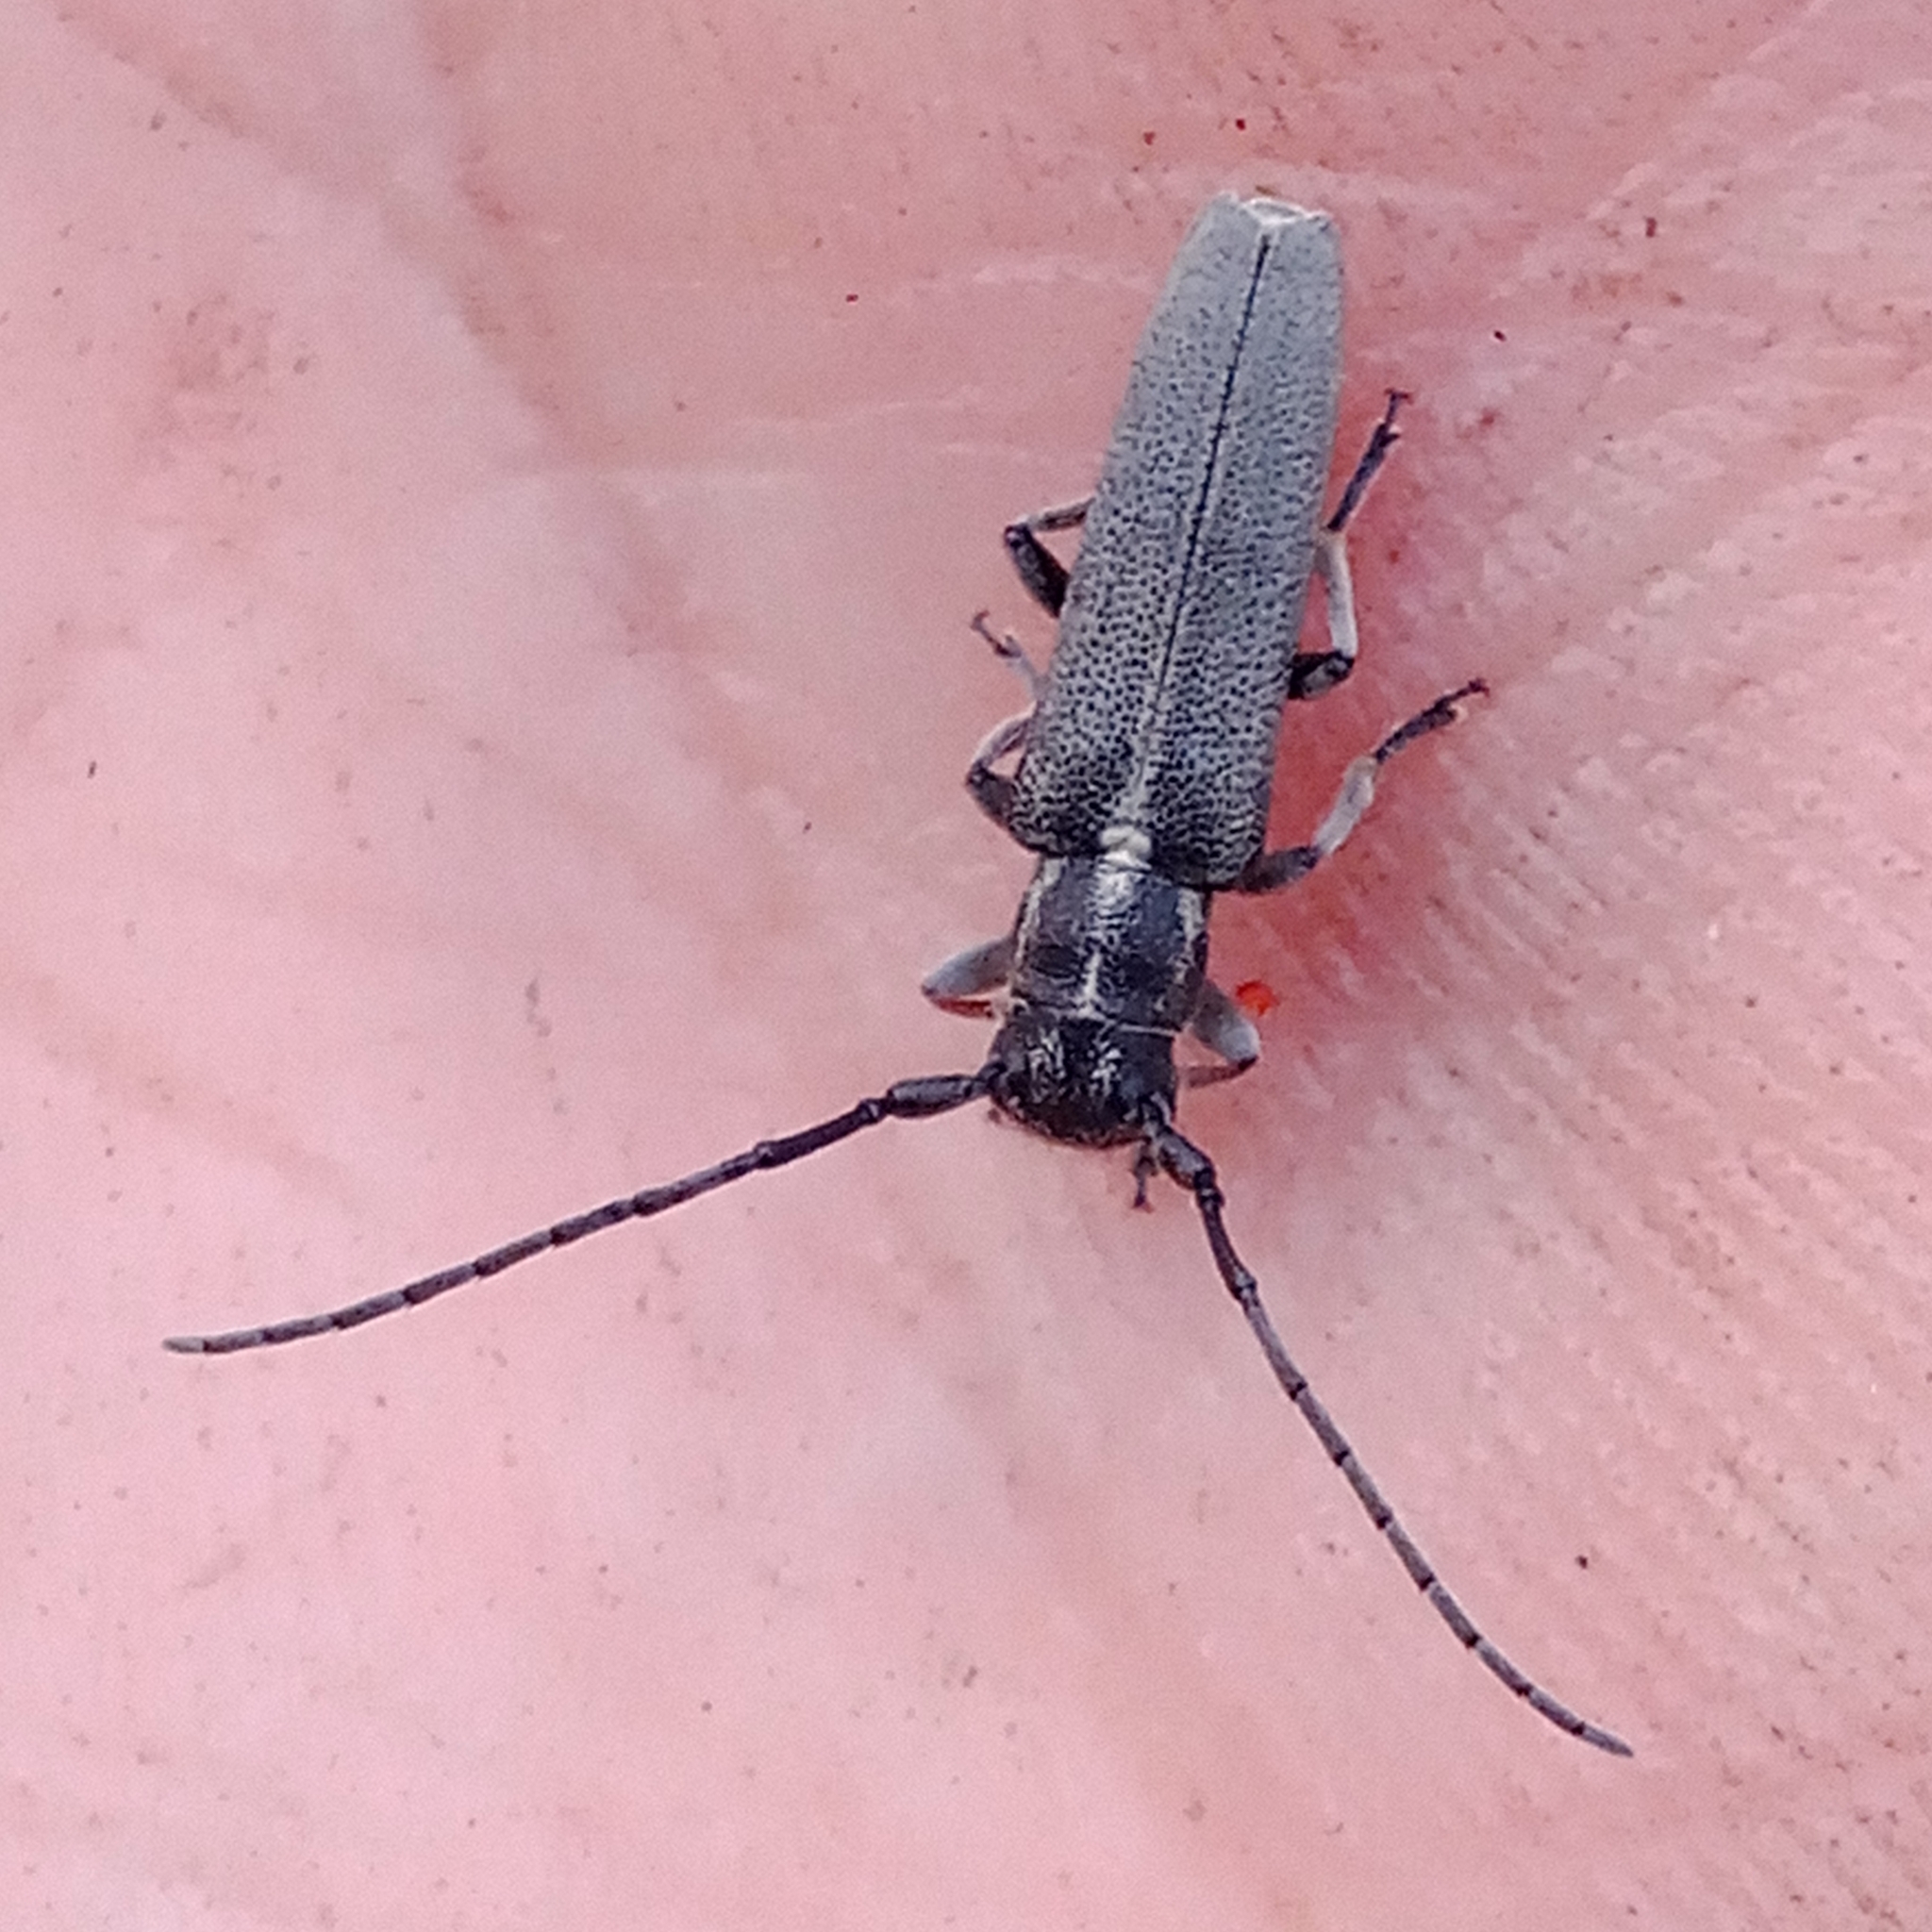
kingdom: Animalia
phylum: Arthropoda
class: Insecta
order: Coleoptera
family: Cerambycidae
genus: Phytoecia
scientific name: Phytoecia cylindrica
